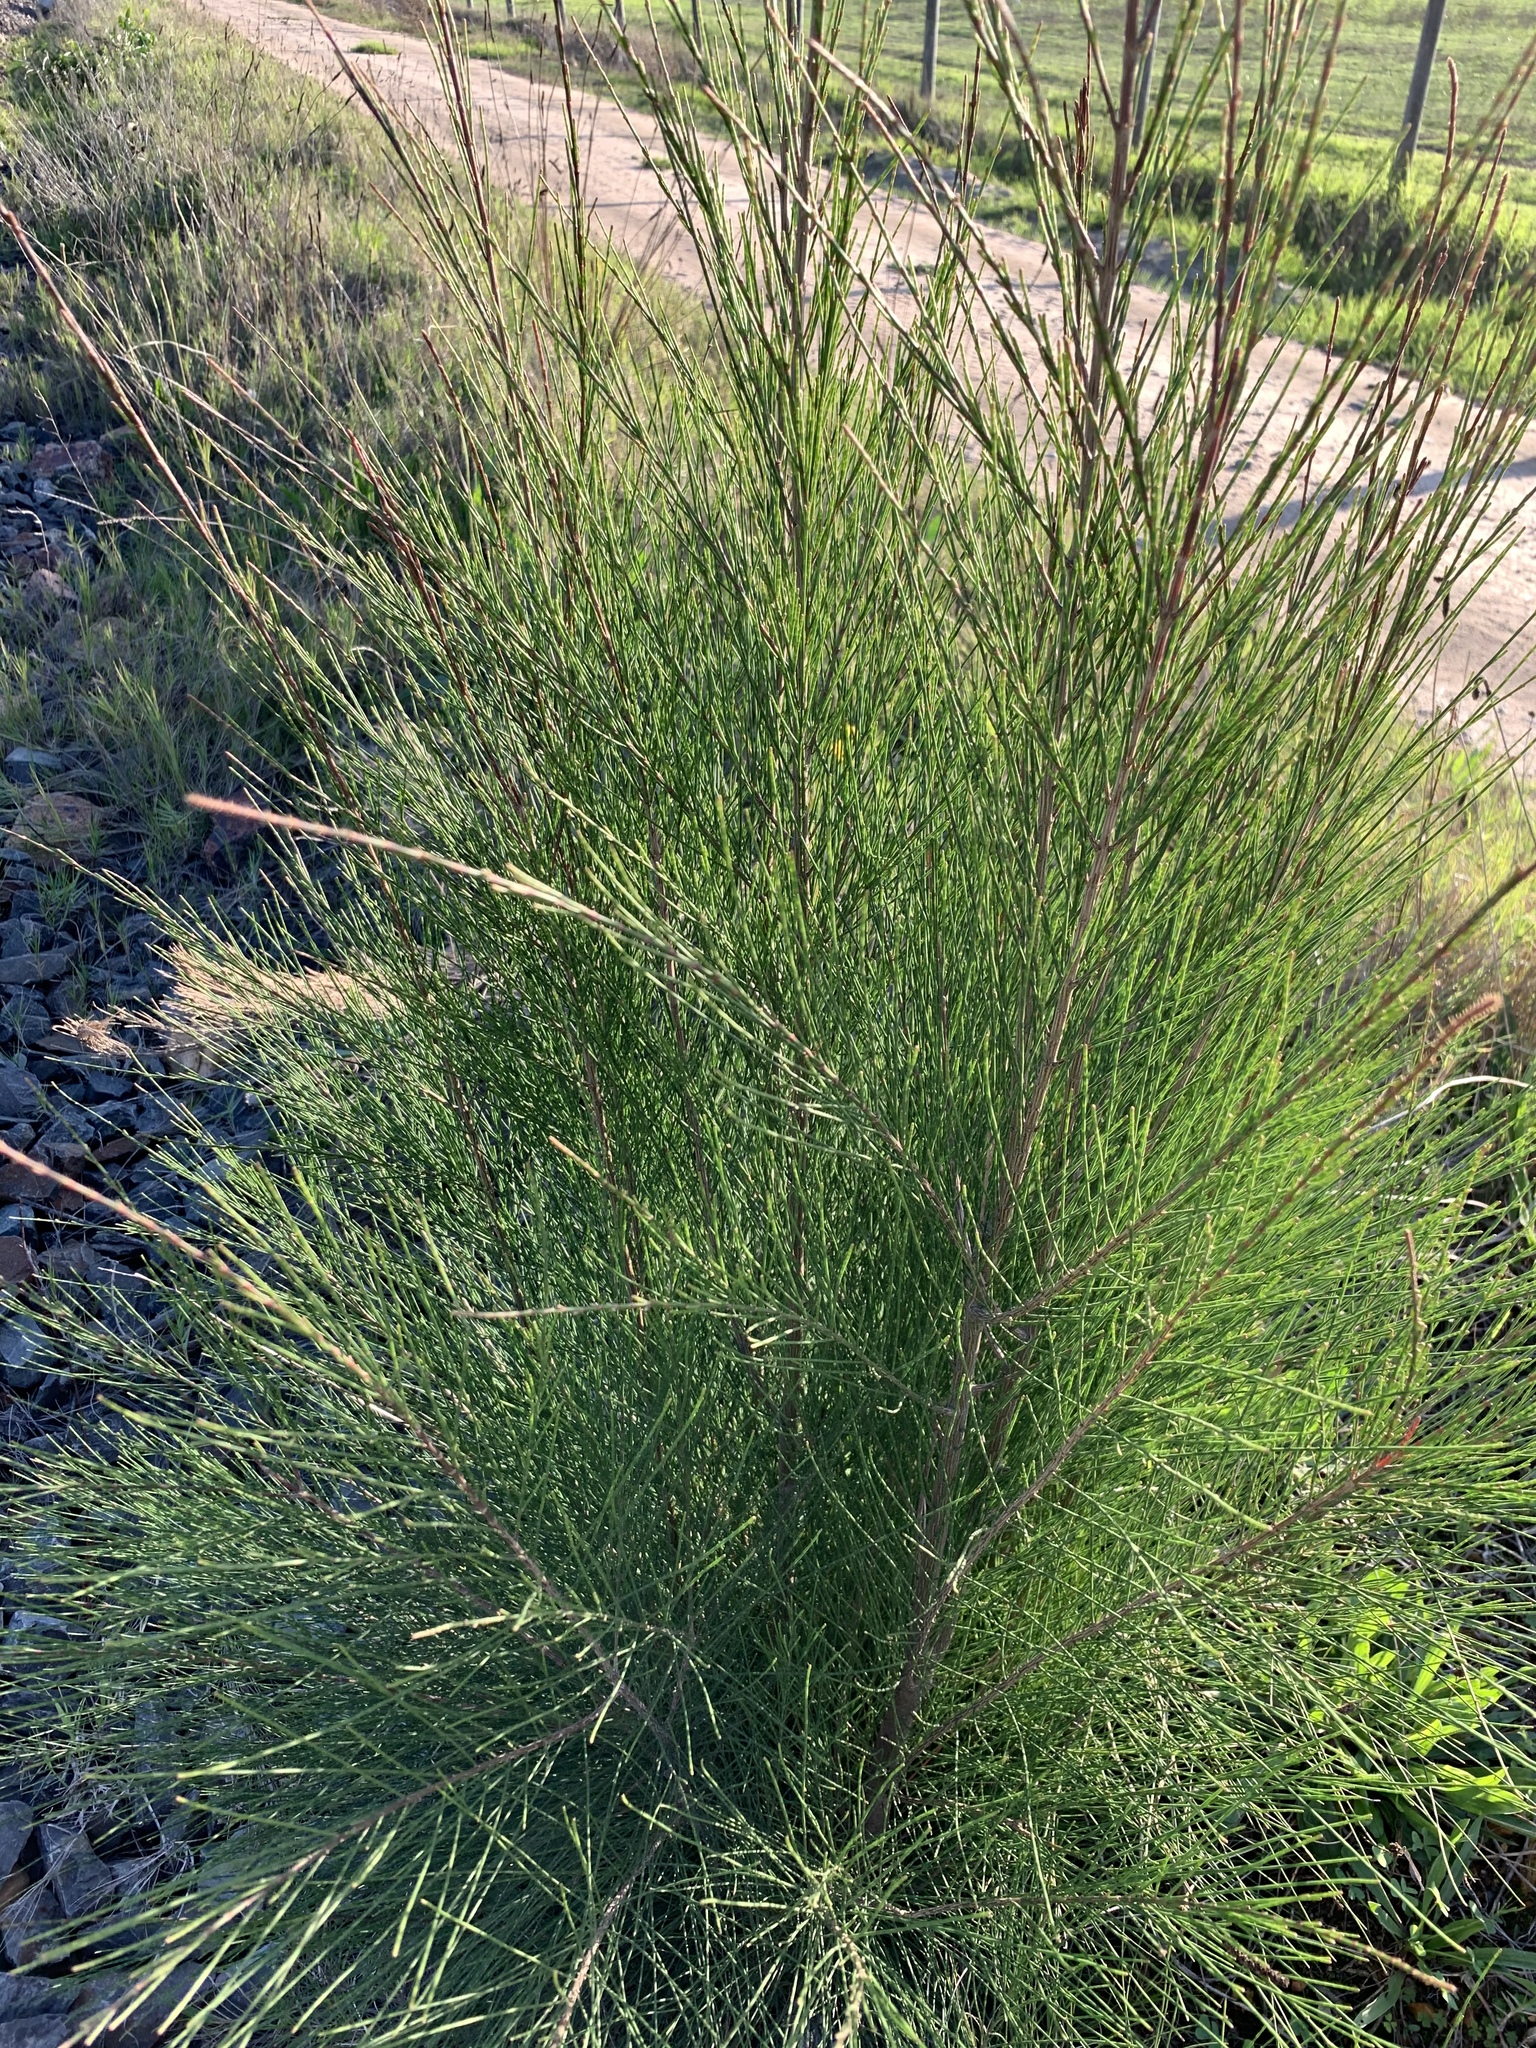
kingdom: Plantae
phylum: Tracheophyta
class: Magnoliopsida
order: Fagales
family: Casuarinaceae
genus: Casuarina
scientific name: Casuarina cunninghamiana
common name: River sheoak
